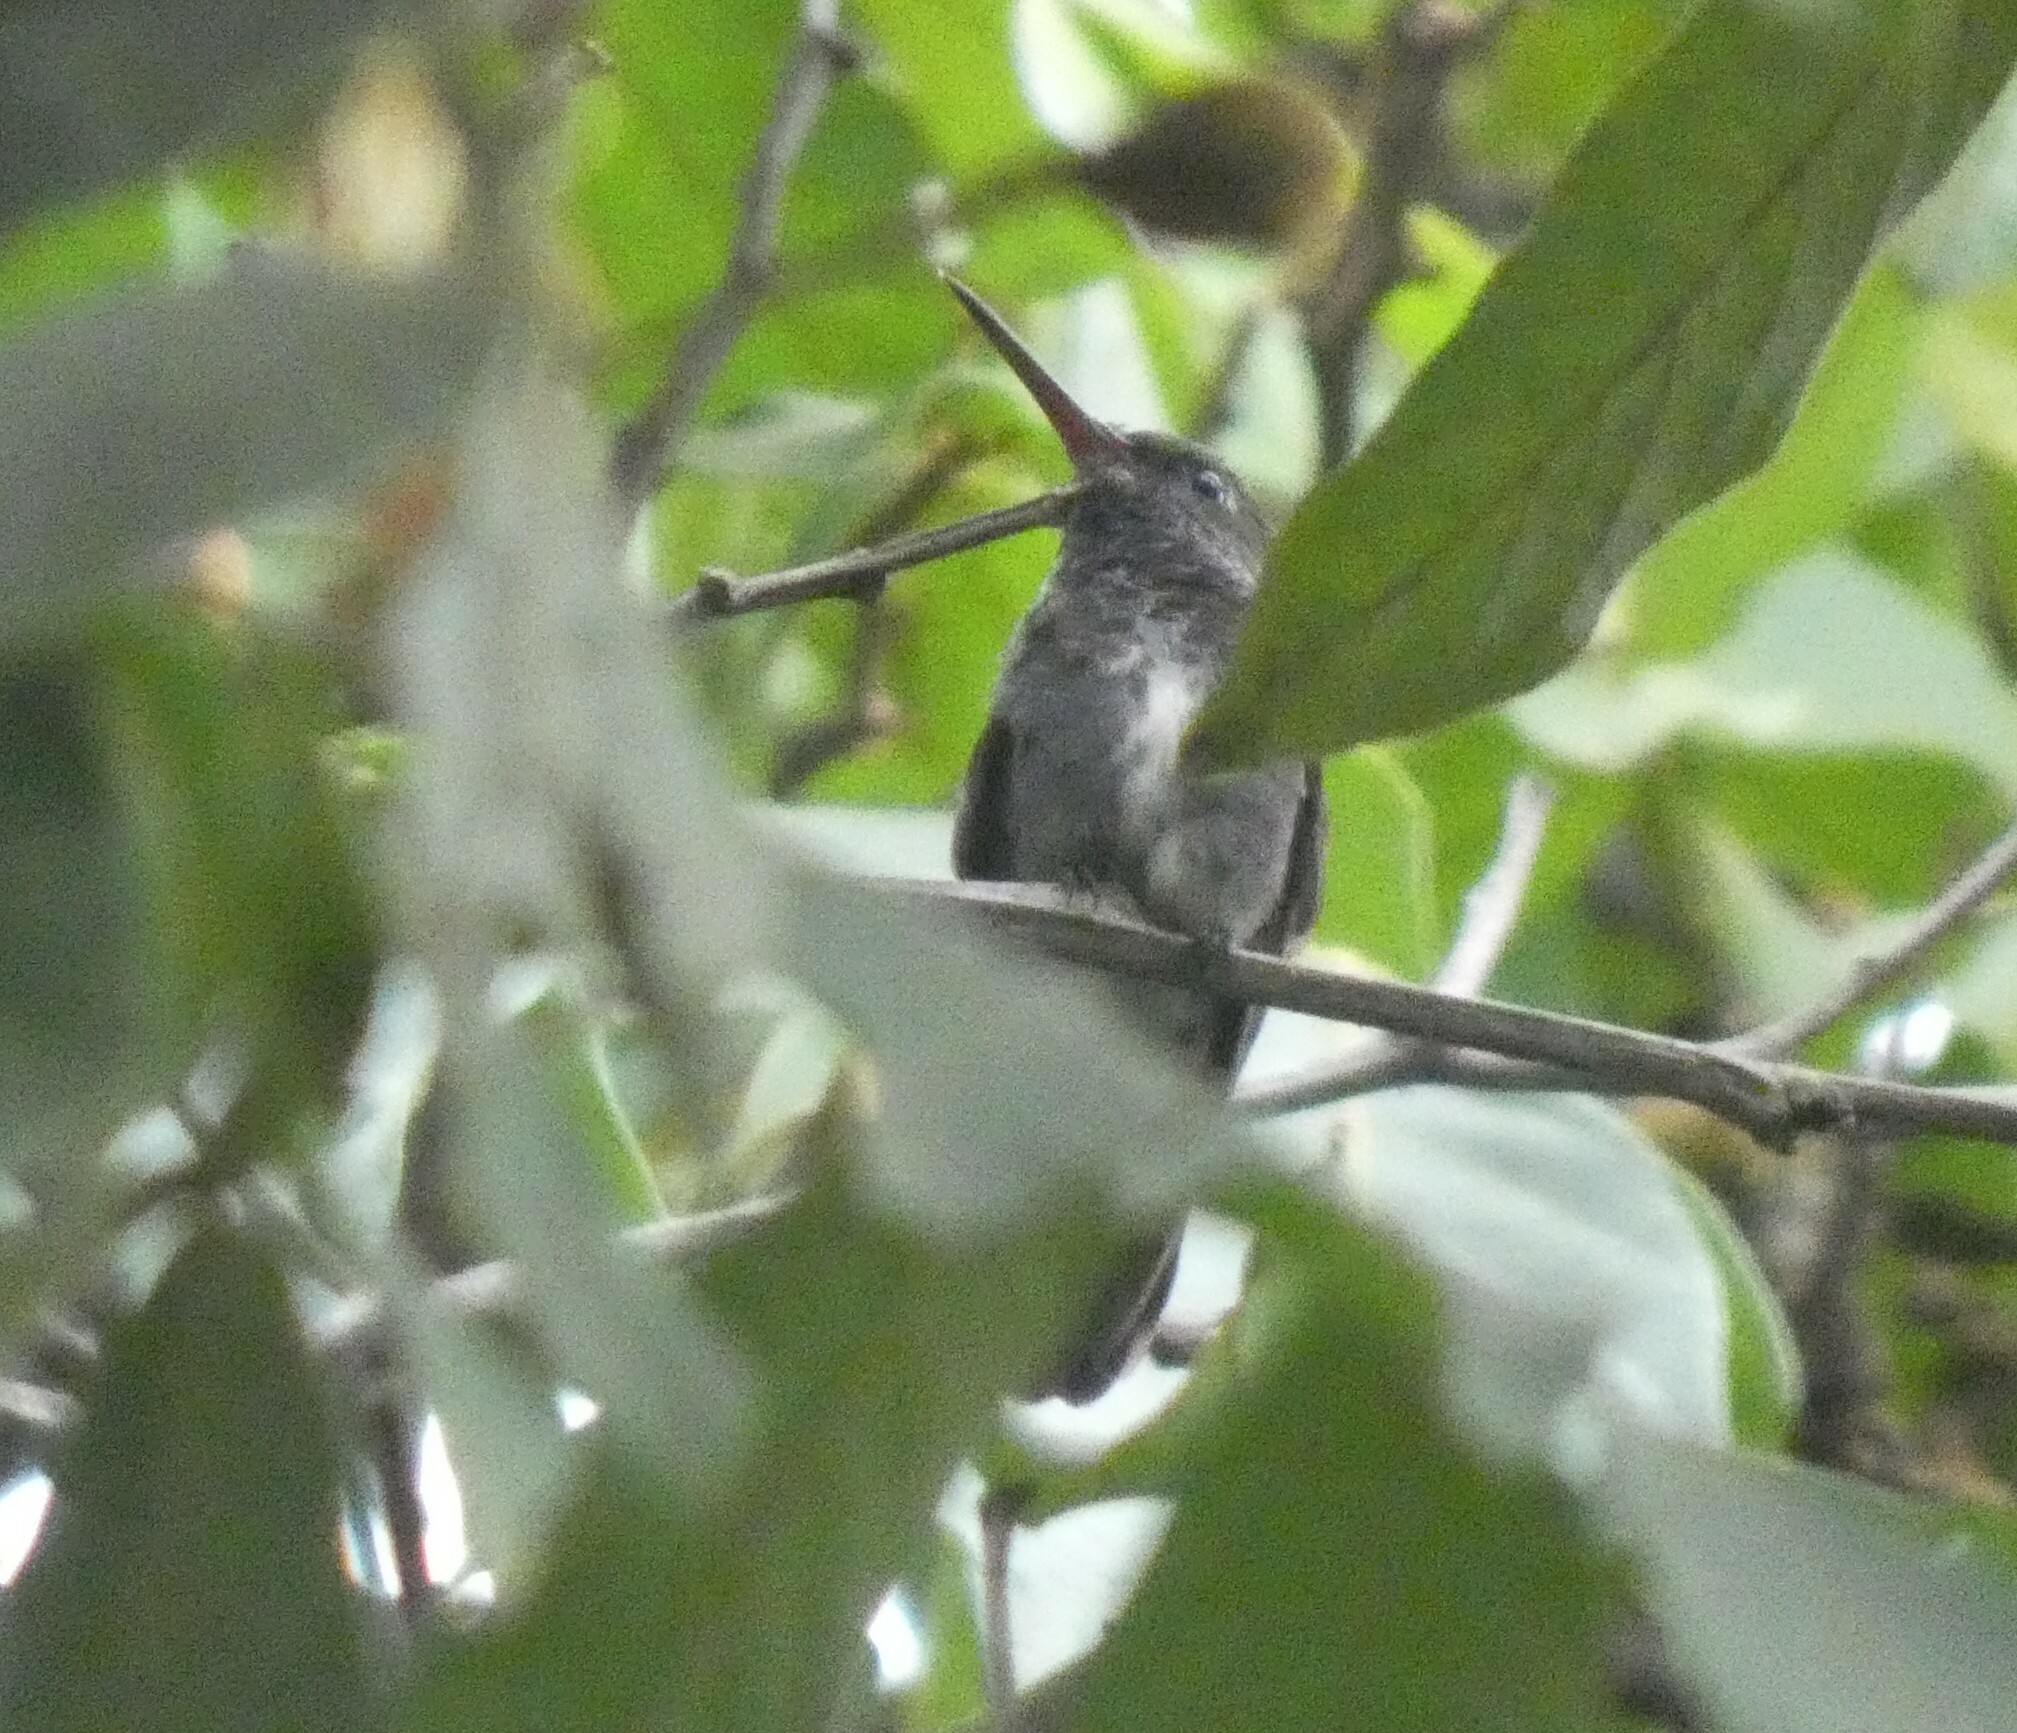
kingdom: Animalia
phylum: Chordata
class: Aves
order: Apodiformes
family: Trochilidae
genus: Chionomesa
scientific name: Chionomesa lactea
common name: Sapphire-spangled emerald
